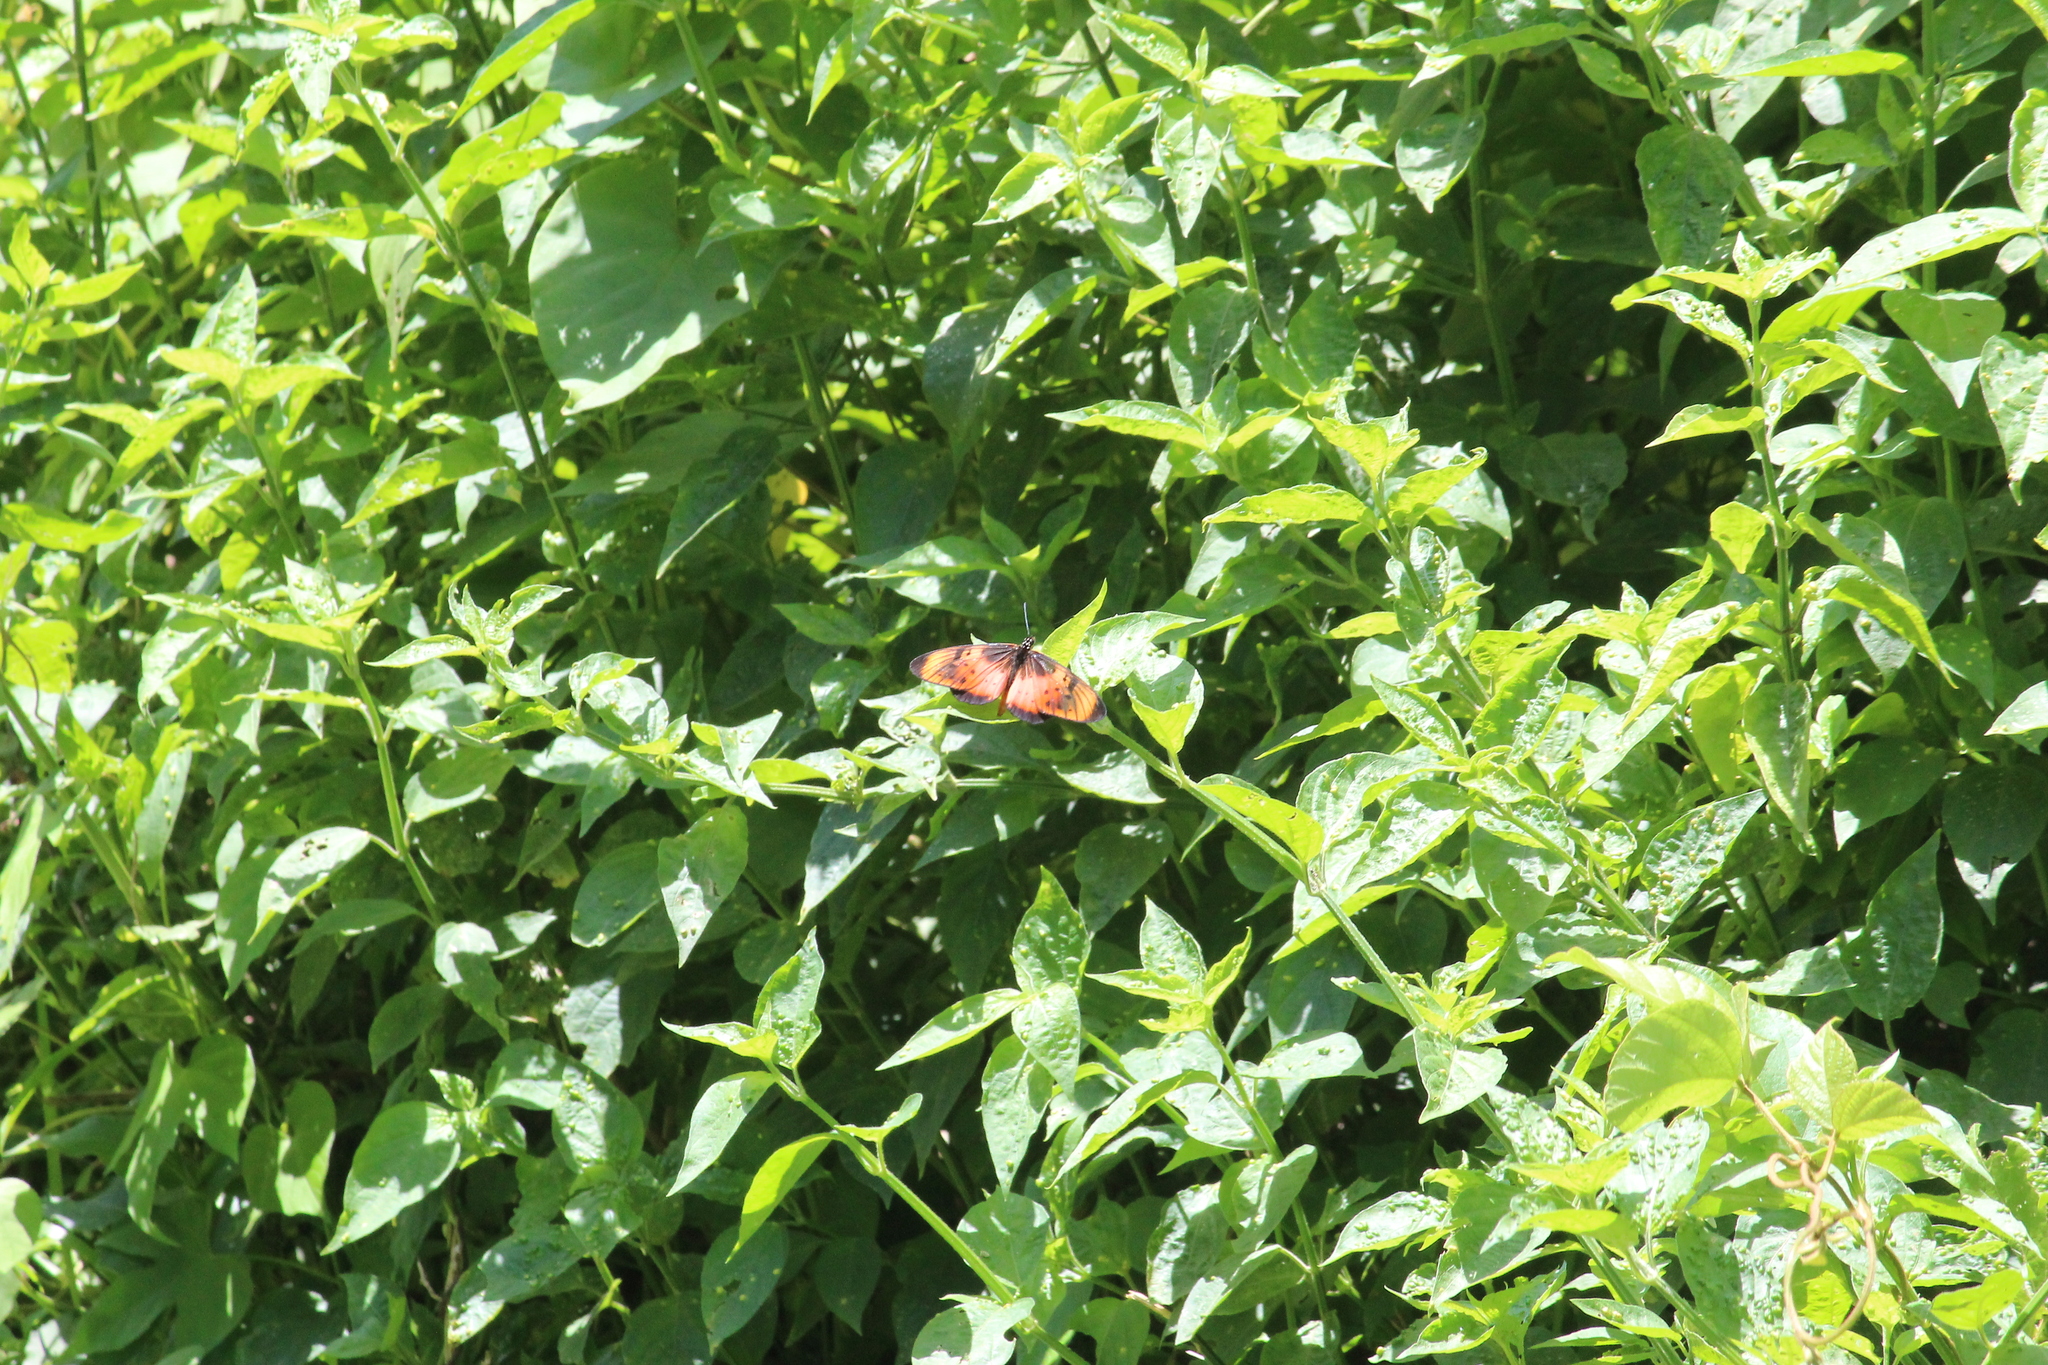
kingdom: Animalia
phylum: Arthropoda
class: Insecta
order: Lepidoptera
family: Nymphalidae
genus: Stephenia
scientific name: Stephenia
